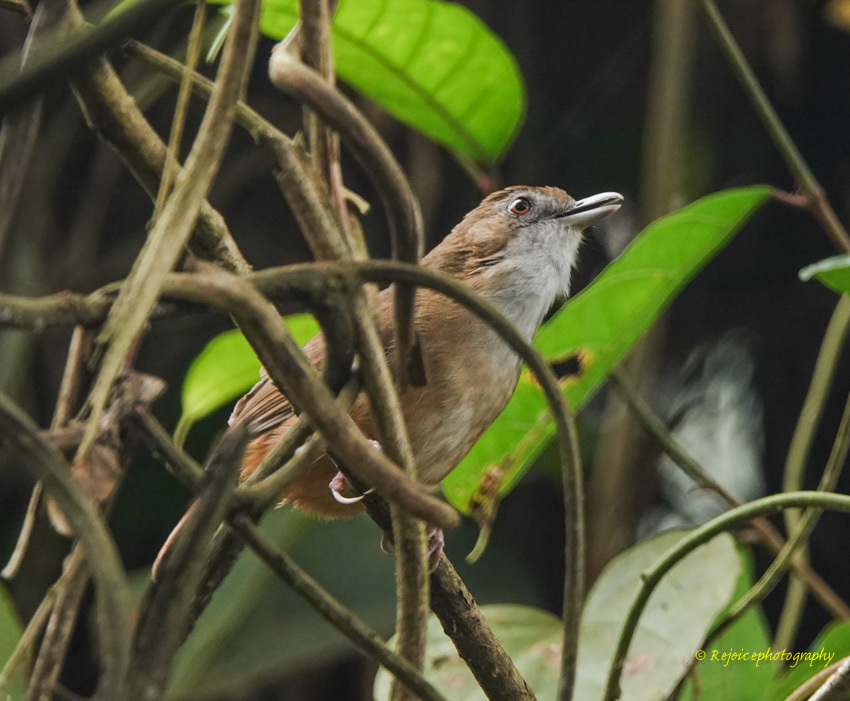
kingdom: Animalia
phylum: Chordata
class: Aves
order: Passeriformes
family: Pellorneidae
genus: Malacocincla
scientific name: Malacocincla abbotti
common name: Abbott's babbler
